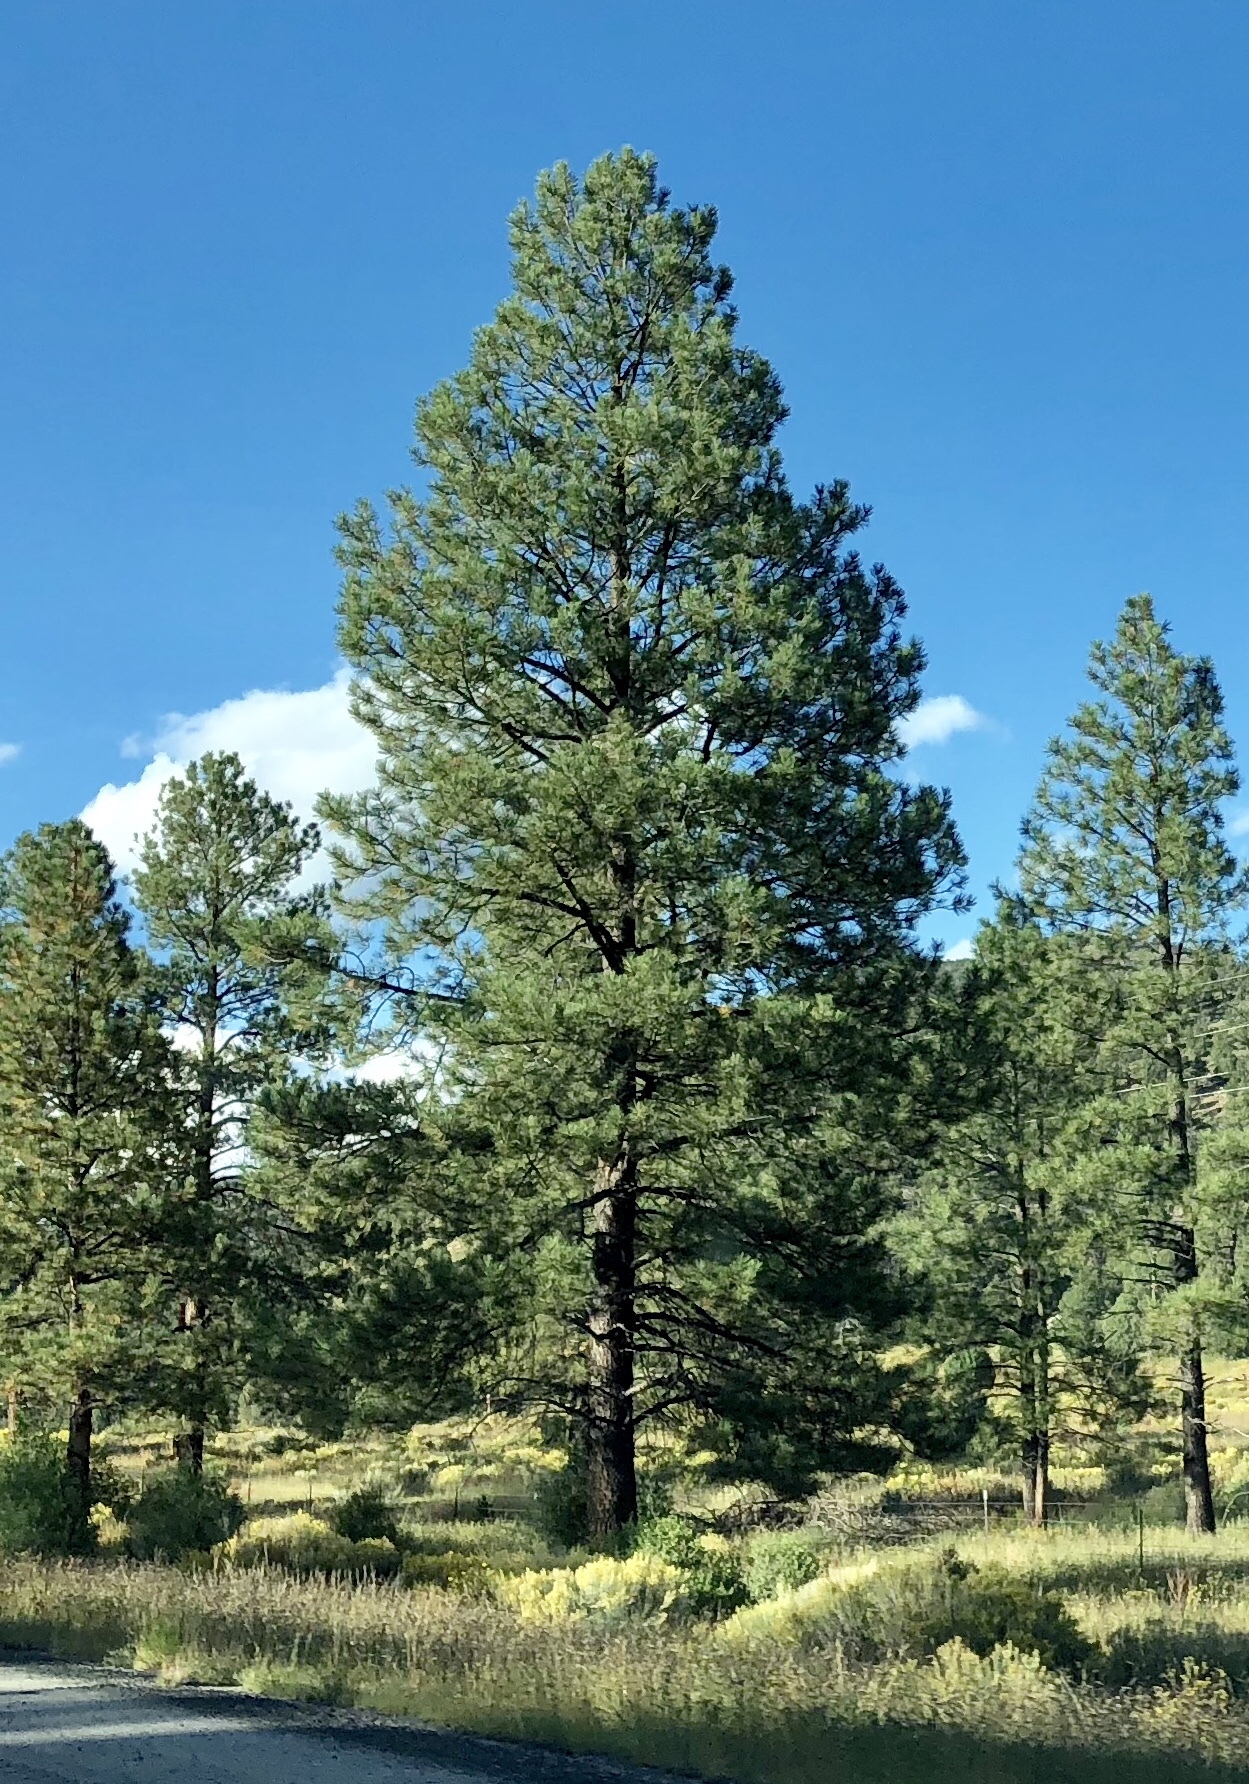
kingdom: Plantae
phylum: Tracheophyta
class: Pinopsida
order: Pinales
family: Pinaceae
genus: Pinus
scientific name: Pinus ponderosa
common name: Western yellow-pine
